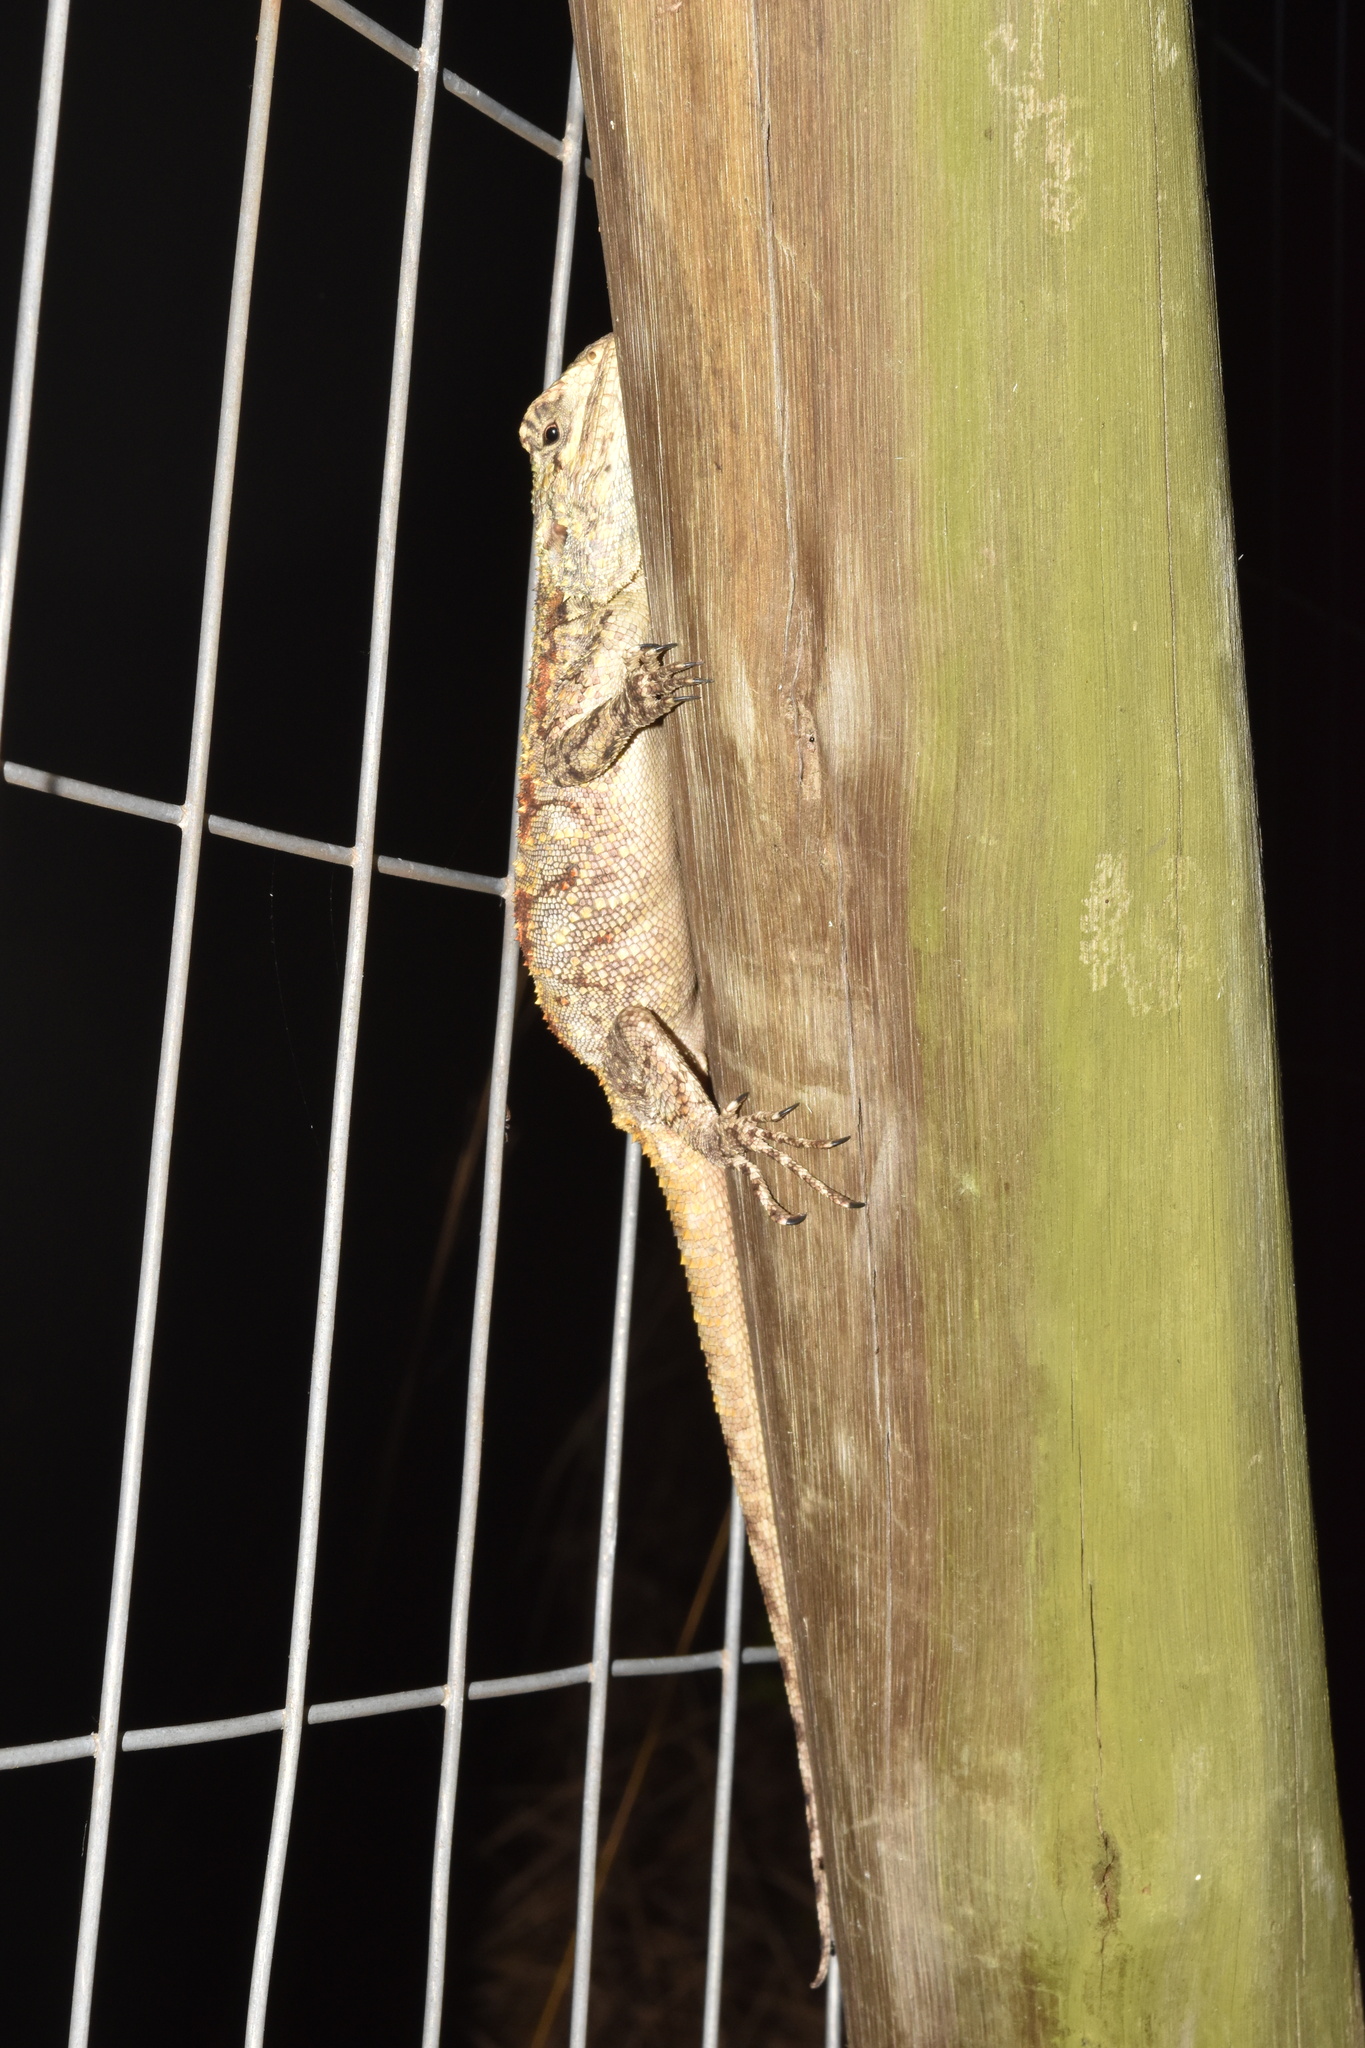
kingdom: Animalia
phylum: Chordata
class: Squamata
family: Agamidae
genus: Acanthocercus
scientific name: Acanthocercus atricollis
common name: Southern tree agama
